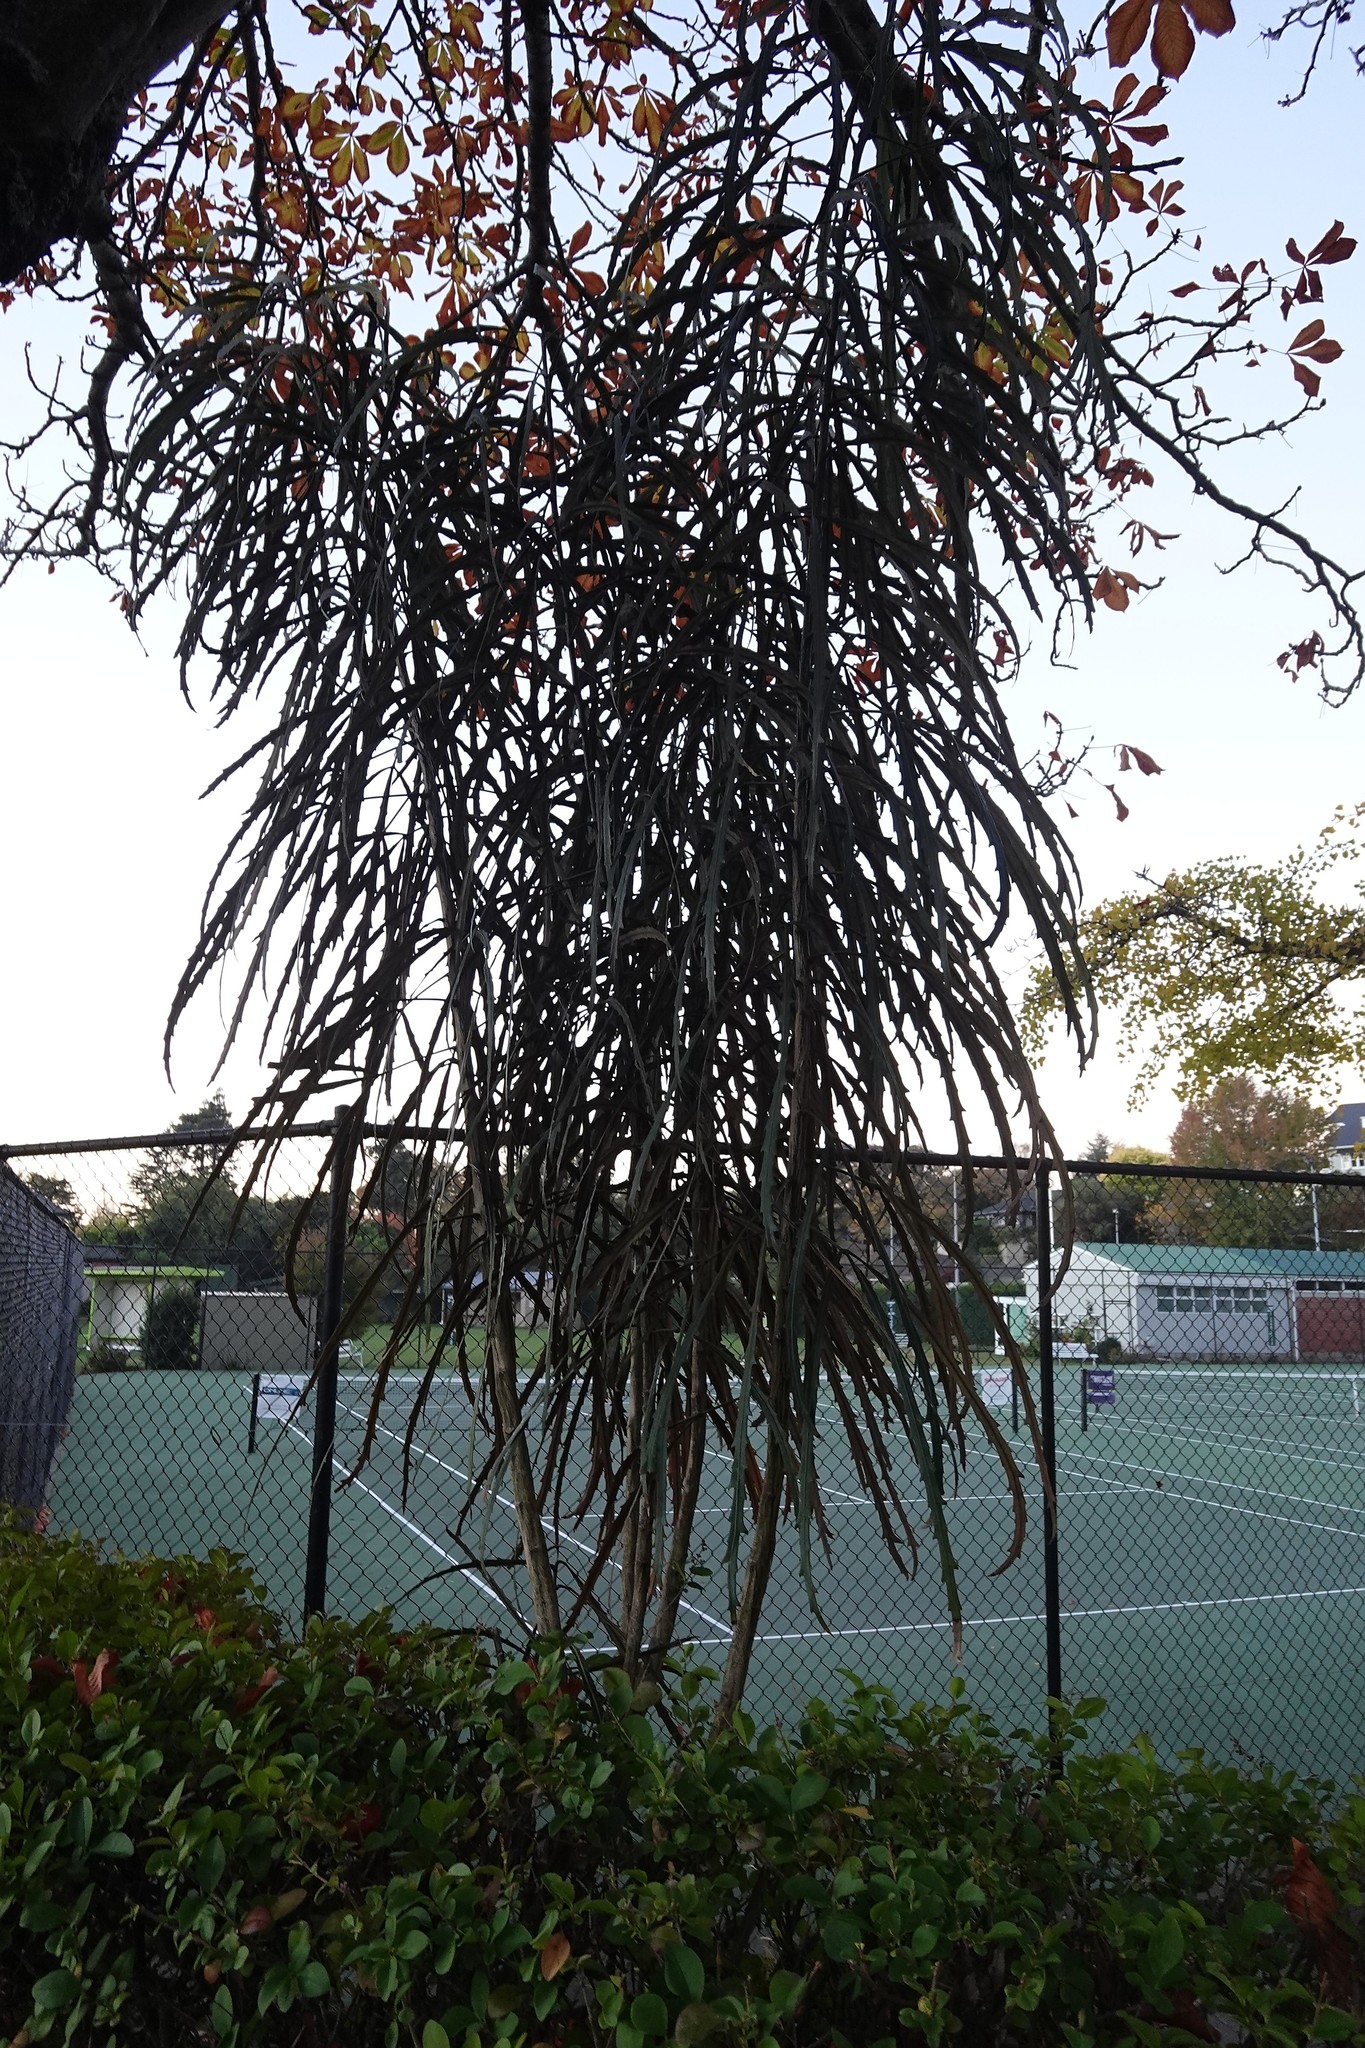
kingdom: Plantae
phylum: Tracheophyta
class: Magnoliopsida
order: Apiales
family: Araliaceae
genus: Pseudopanax
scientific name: Pseudopanax
